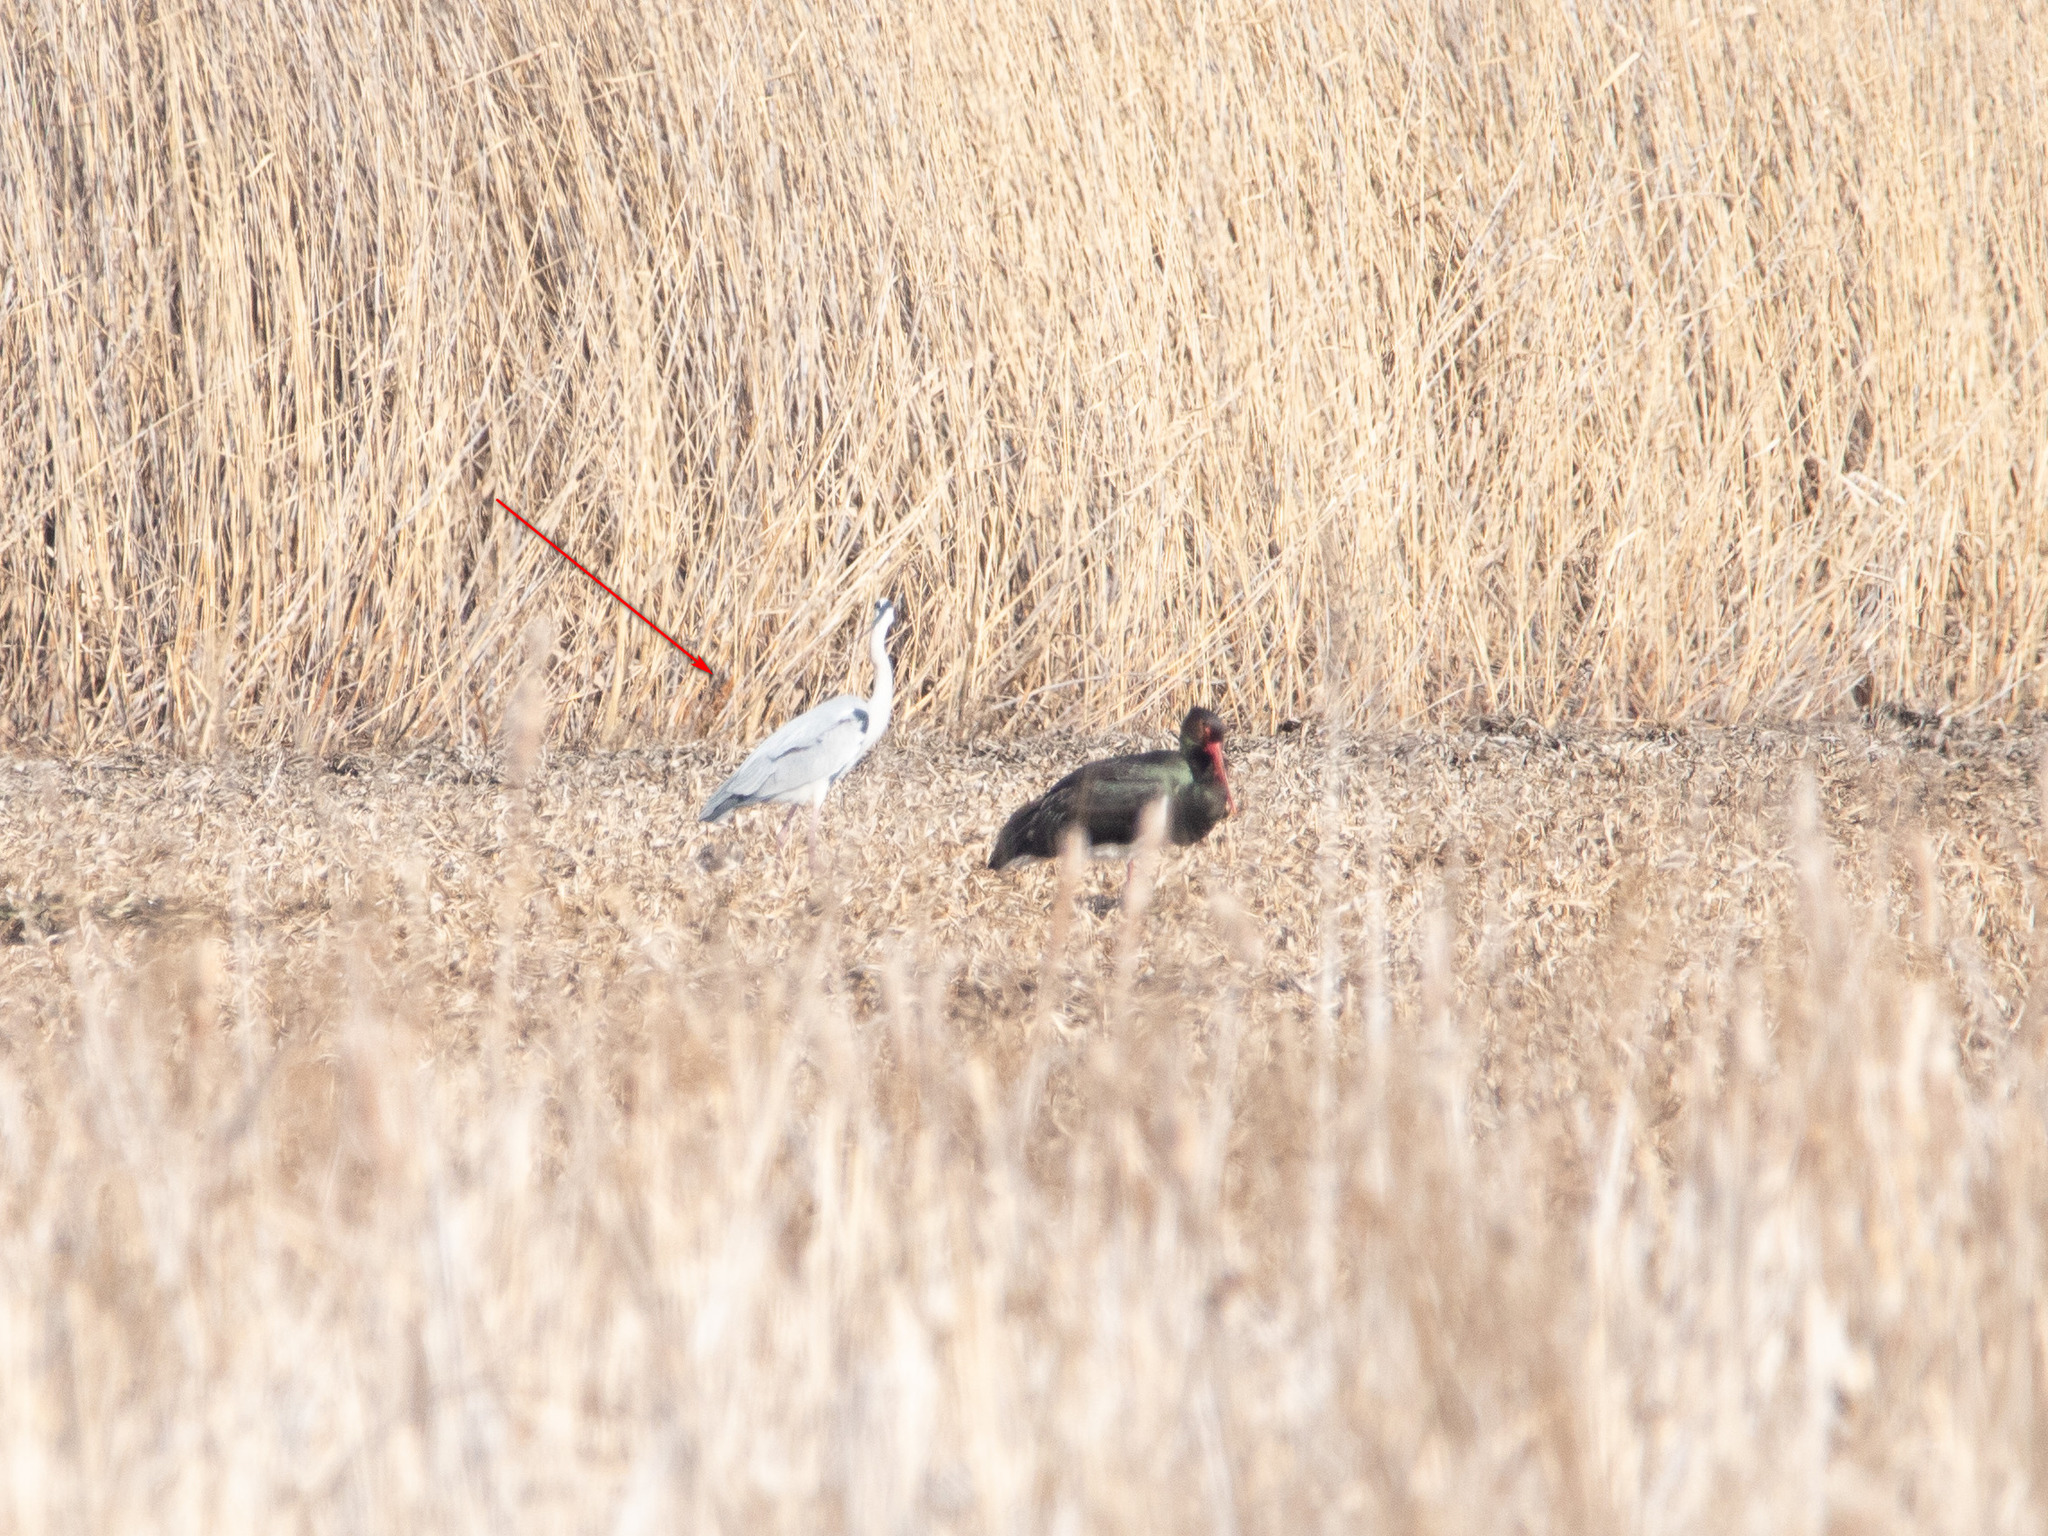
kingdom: Animalia
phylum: Chordata
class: Aves
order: Pelecaniformes
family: Ardeidae
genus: Ardea
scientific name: Ardea cinerea
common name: Grey heron
